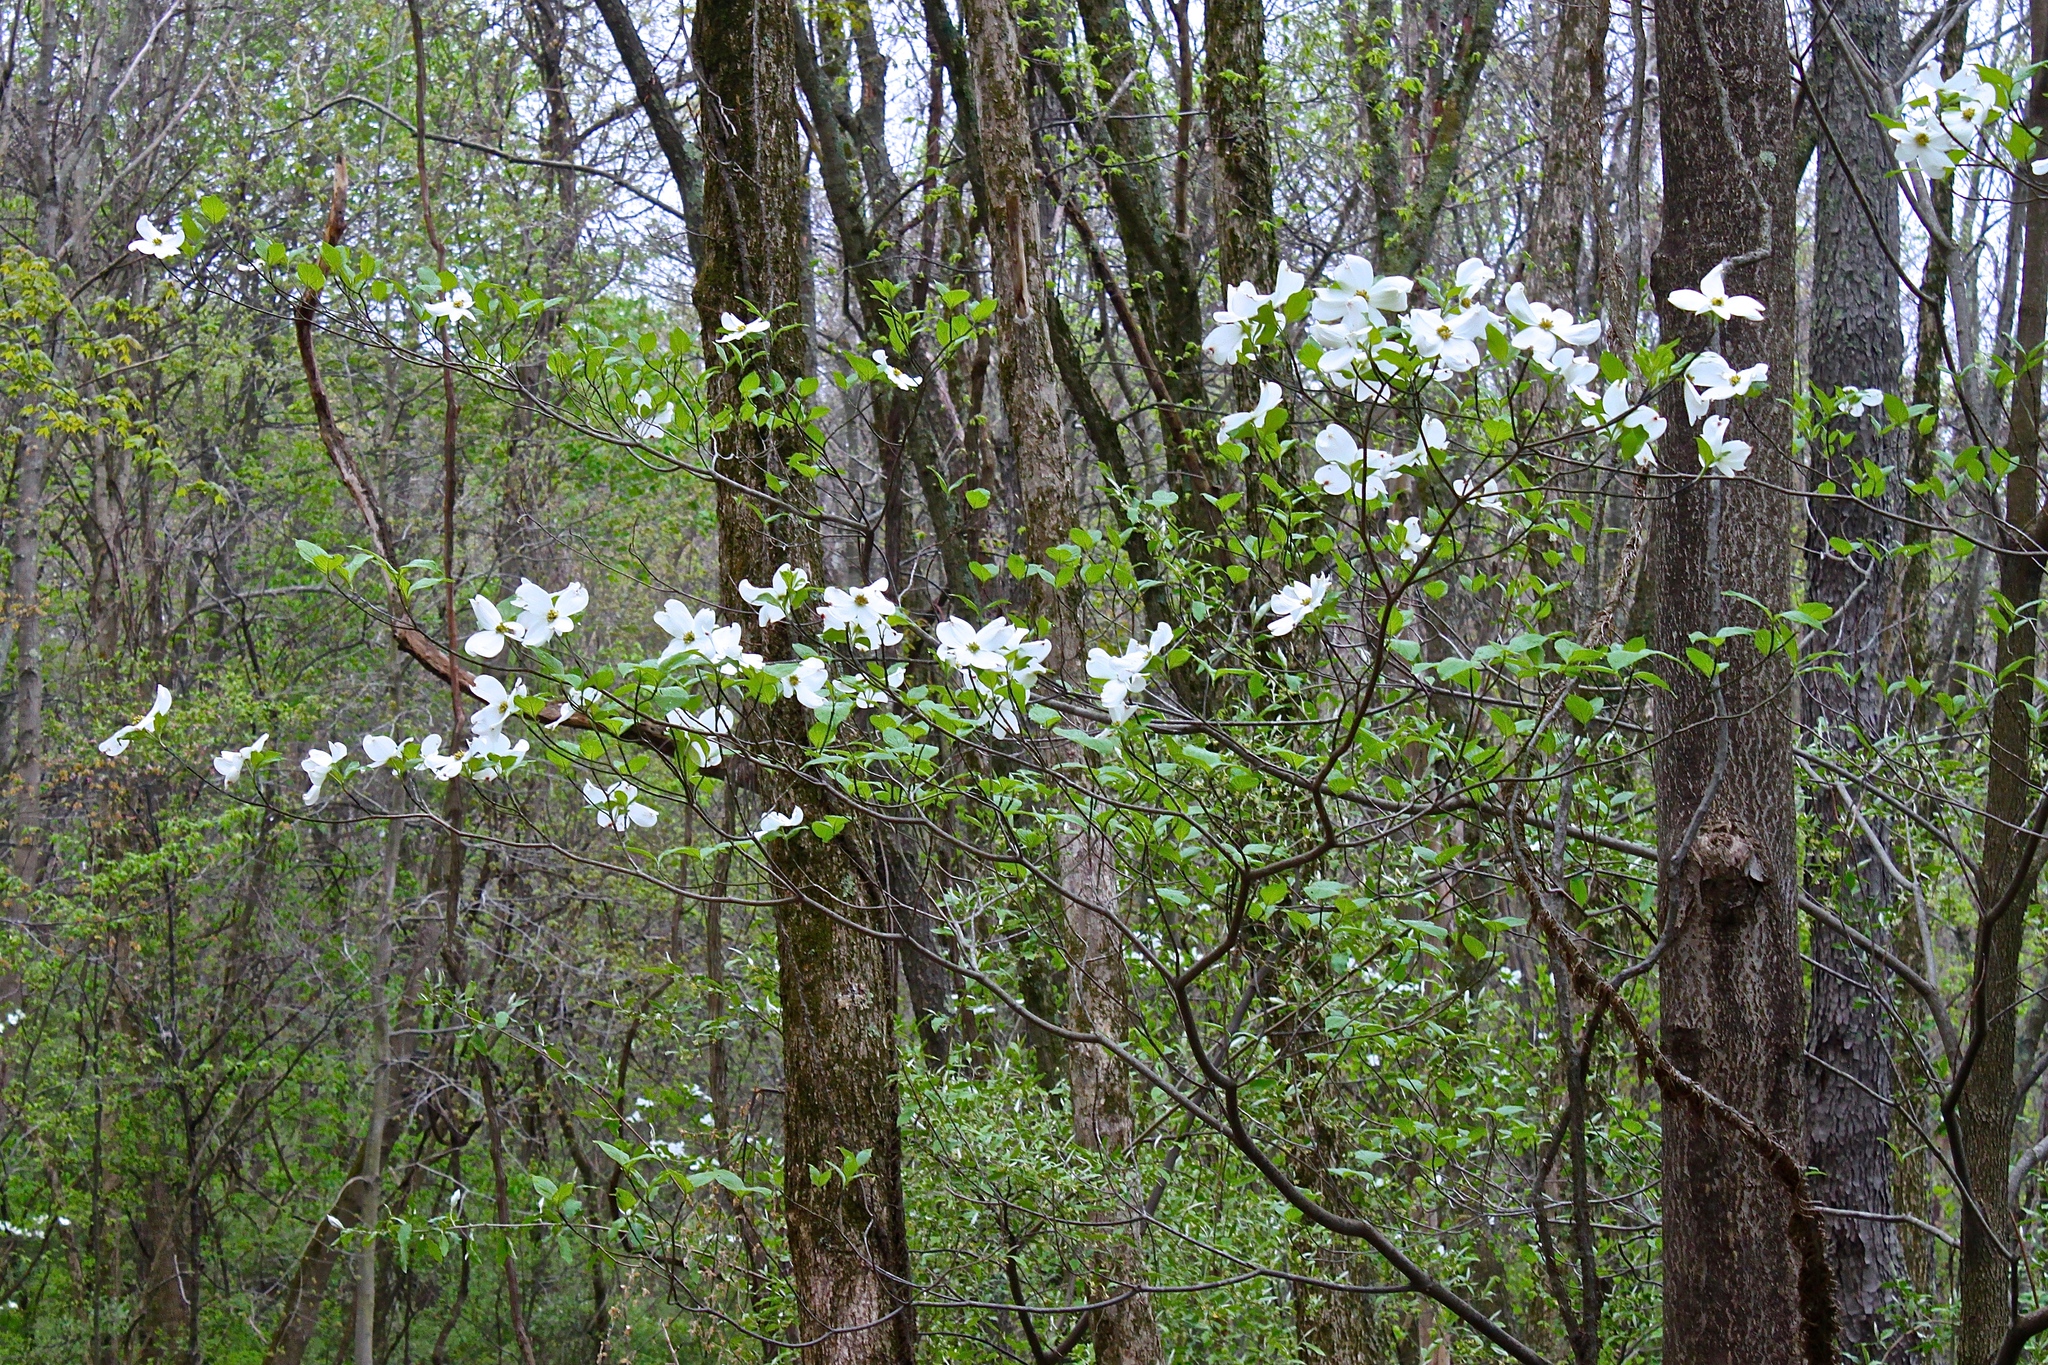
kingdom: Plantae
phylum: Tracheophyta
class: Magnoliopsida
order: Cornales
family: Cornaceae
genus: Cornus
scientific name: Cornus florida
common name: Flowering dogwood
